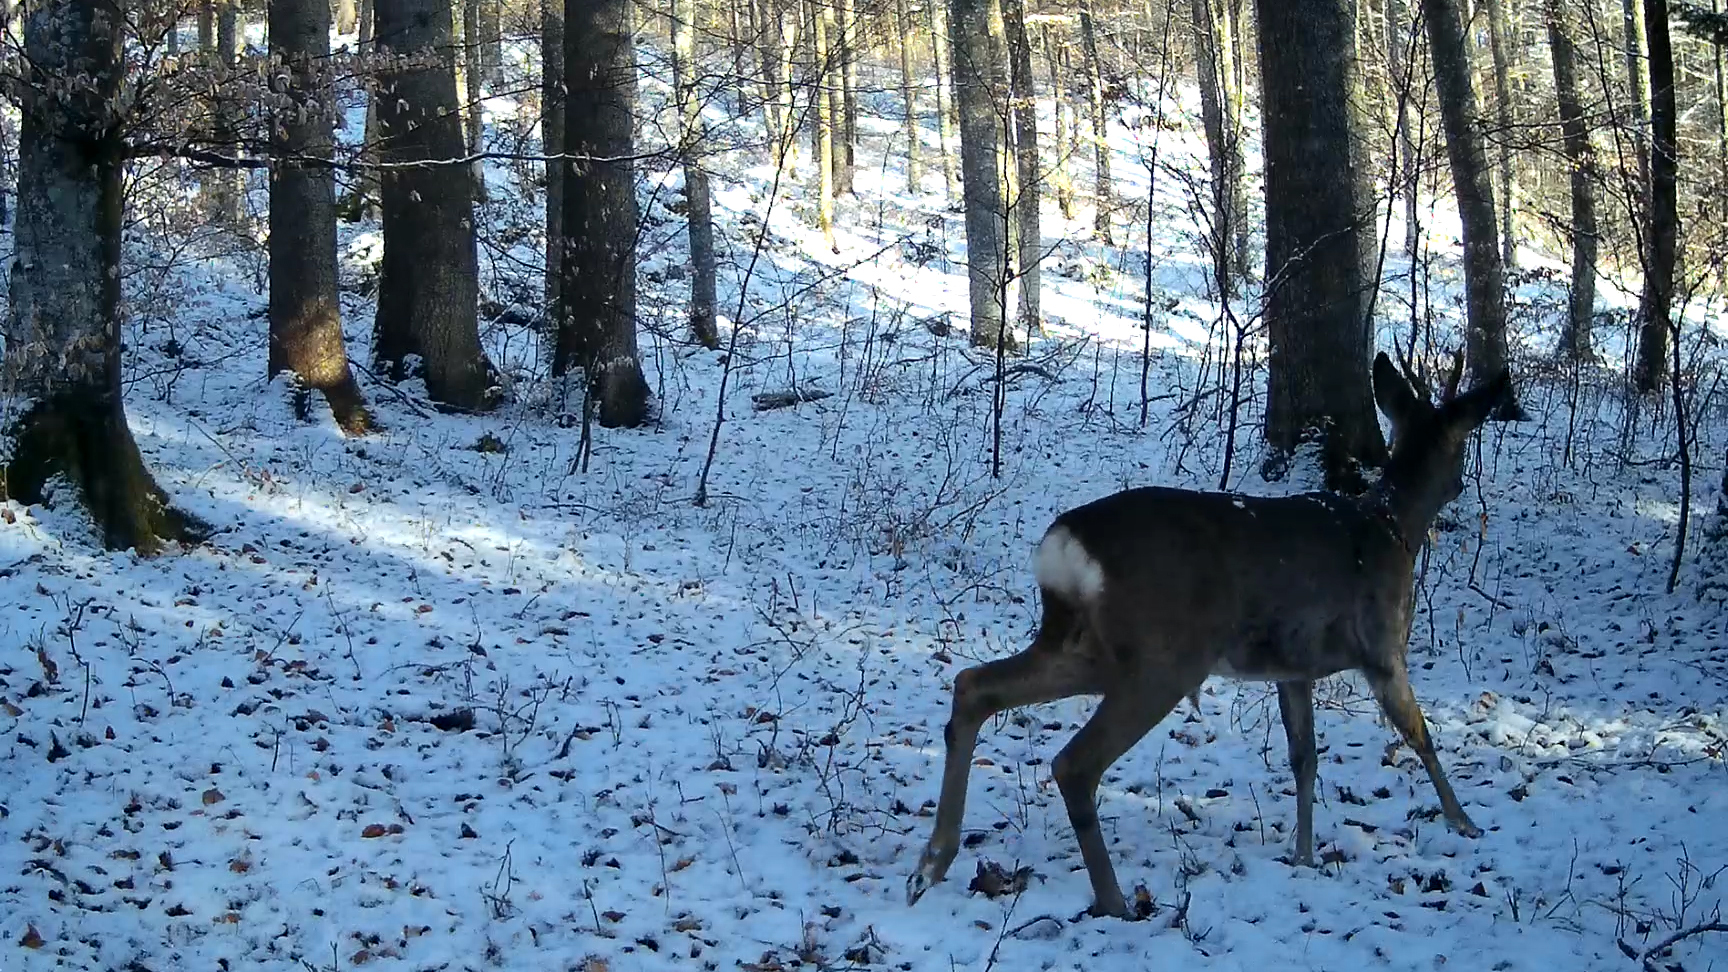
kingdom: Animalia
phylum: Chordata
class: Mammalia
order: Artiodactyla
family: Cervidae
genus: Capreolus
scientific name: Capreolus capreolus
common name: Western roe deer
